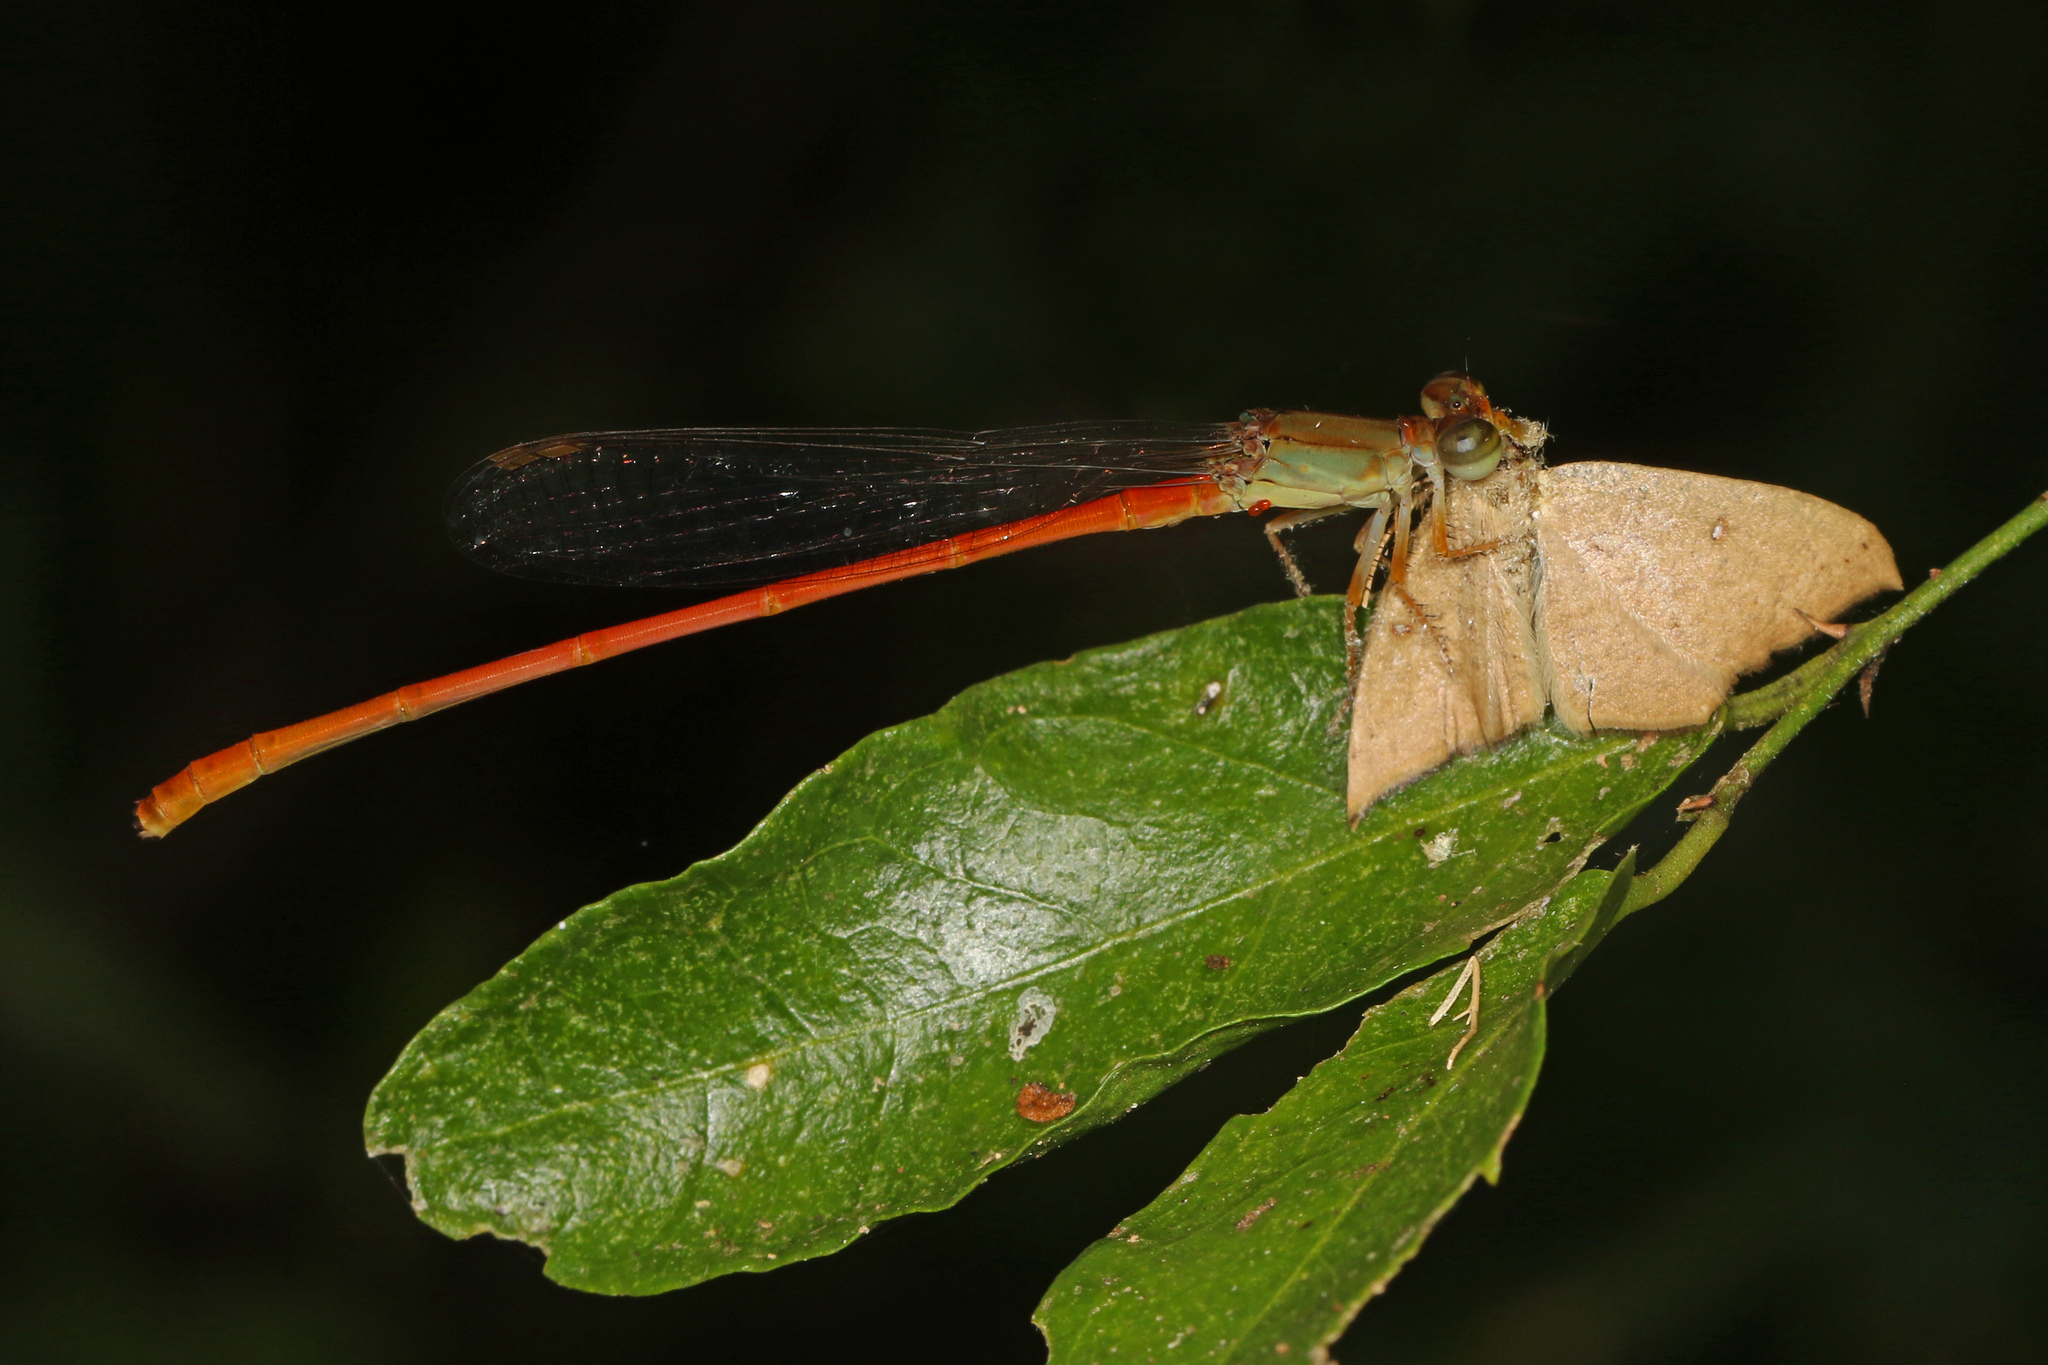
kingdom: Animalia
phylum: Arthropoda
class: Insecta
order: Odonata
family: Coenagrionidae
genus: Ceriagrion
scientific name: Ceriagrion glabrum
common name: Common pond damsel
